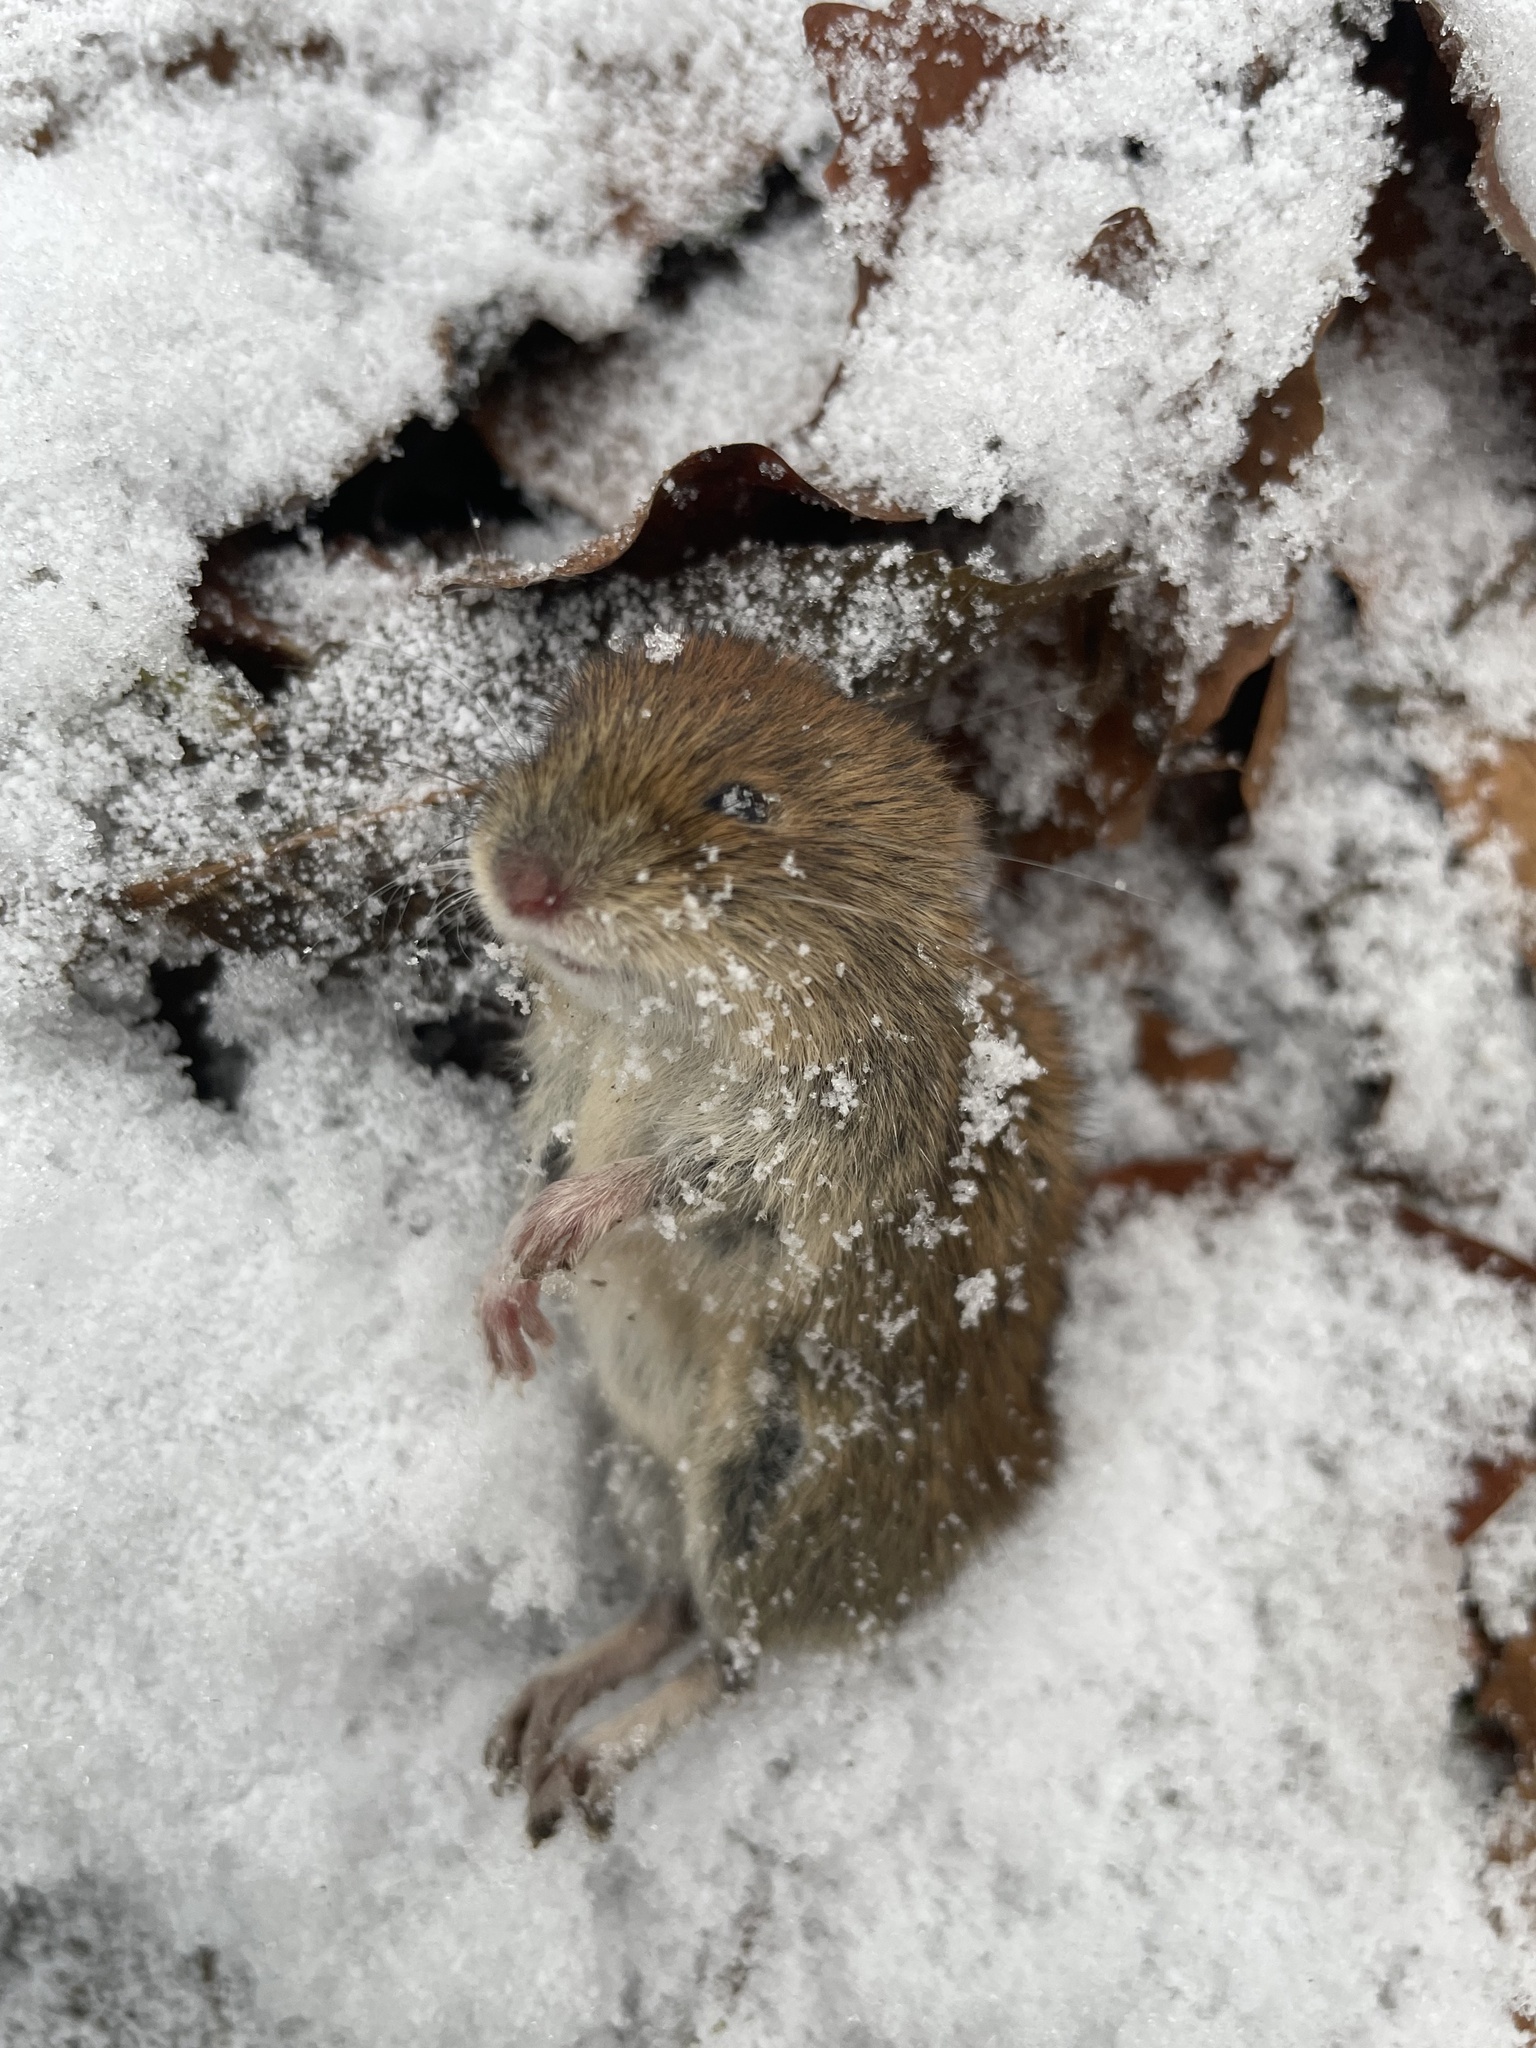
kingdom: Animalia
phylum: Chordata
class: Mammalia
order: Rodentia
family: Cricetidae
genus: Myodes
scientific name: Myodes glareolus
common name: Bank vole
